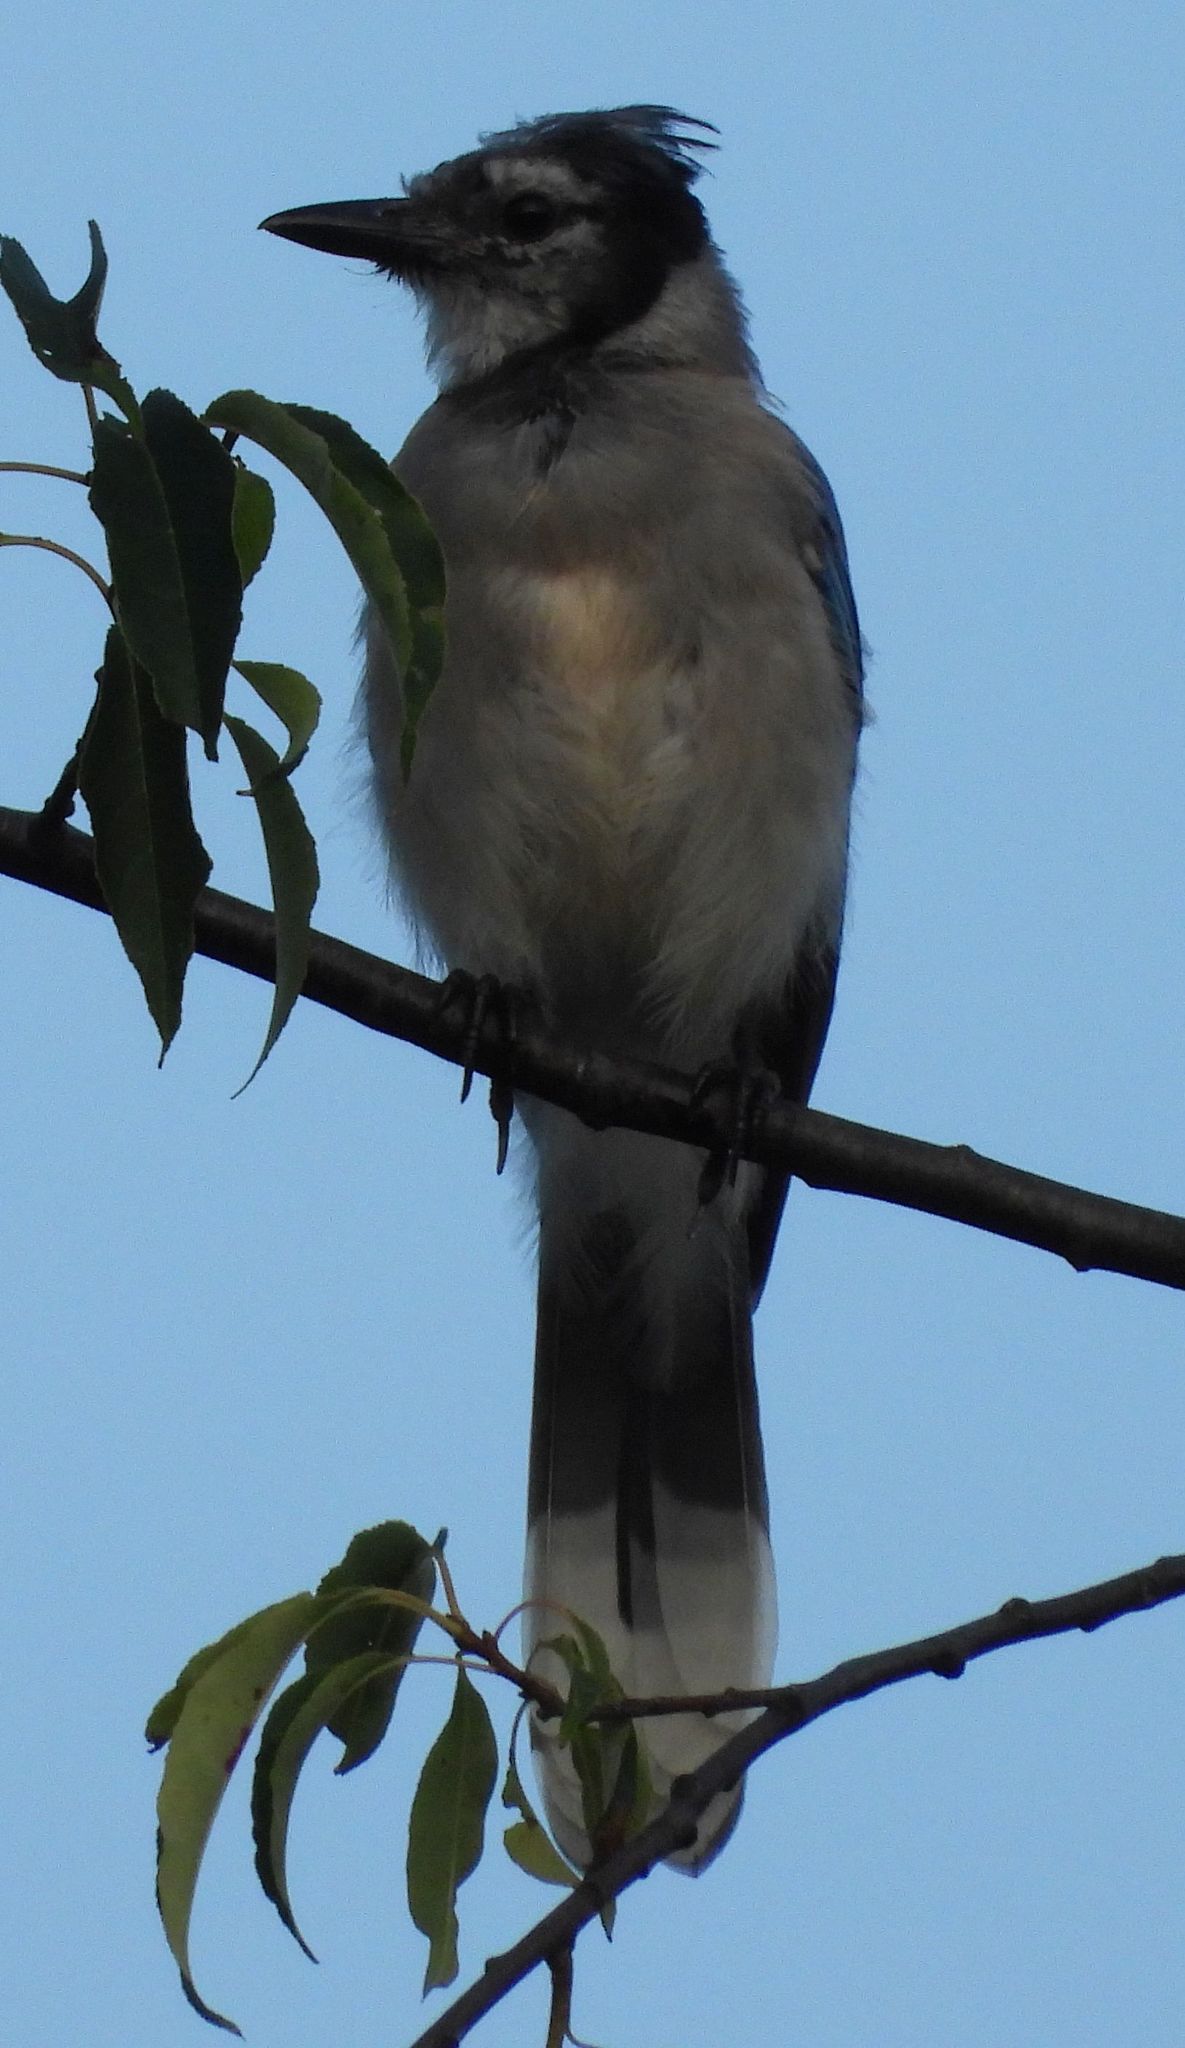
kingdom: Animalia
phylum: Chordata
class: Aves
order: Passeriformes
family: Corvidae
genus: Cyanocitta
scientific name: Cyanocitta cristata
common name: Blue jay
